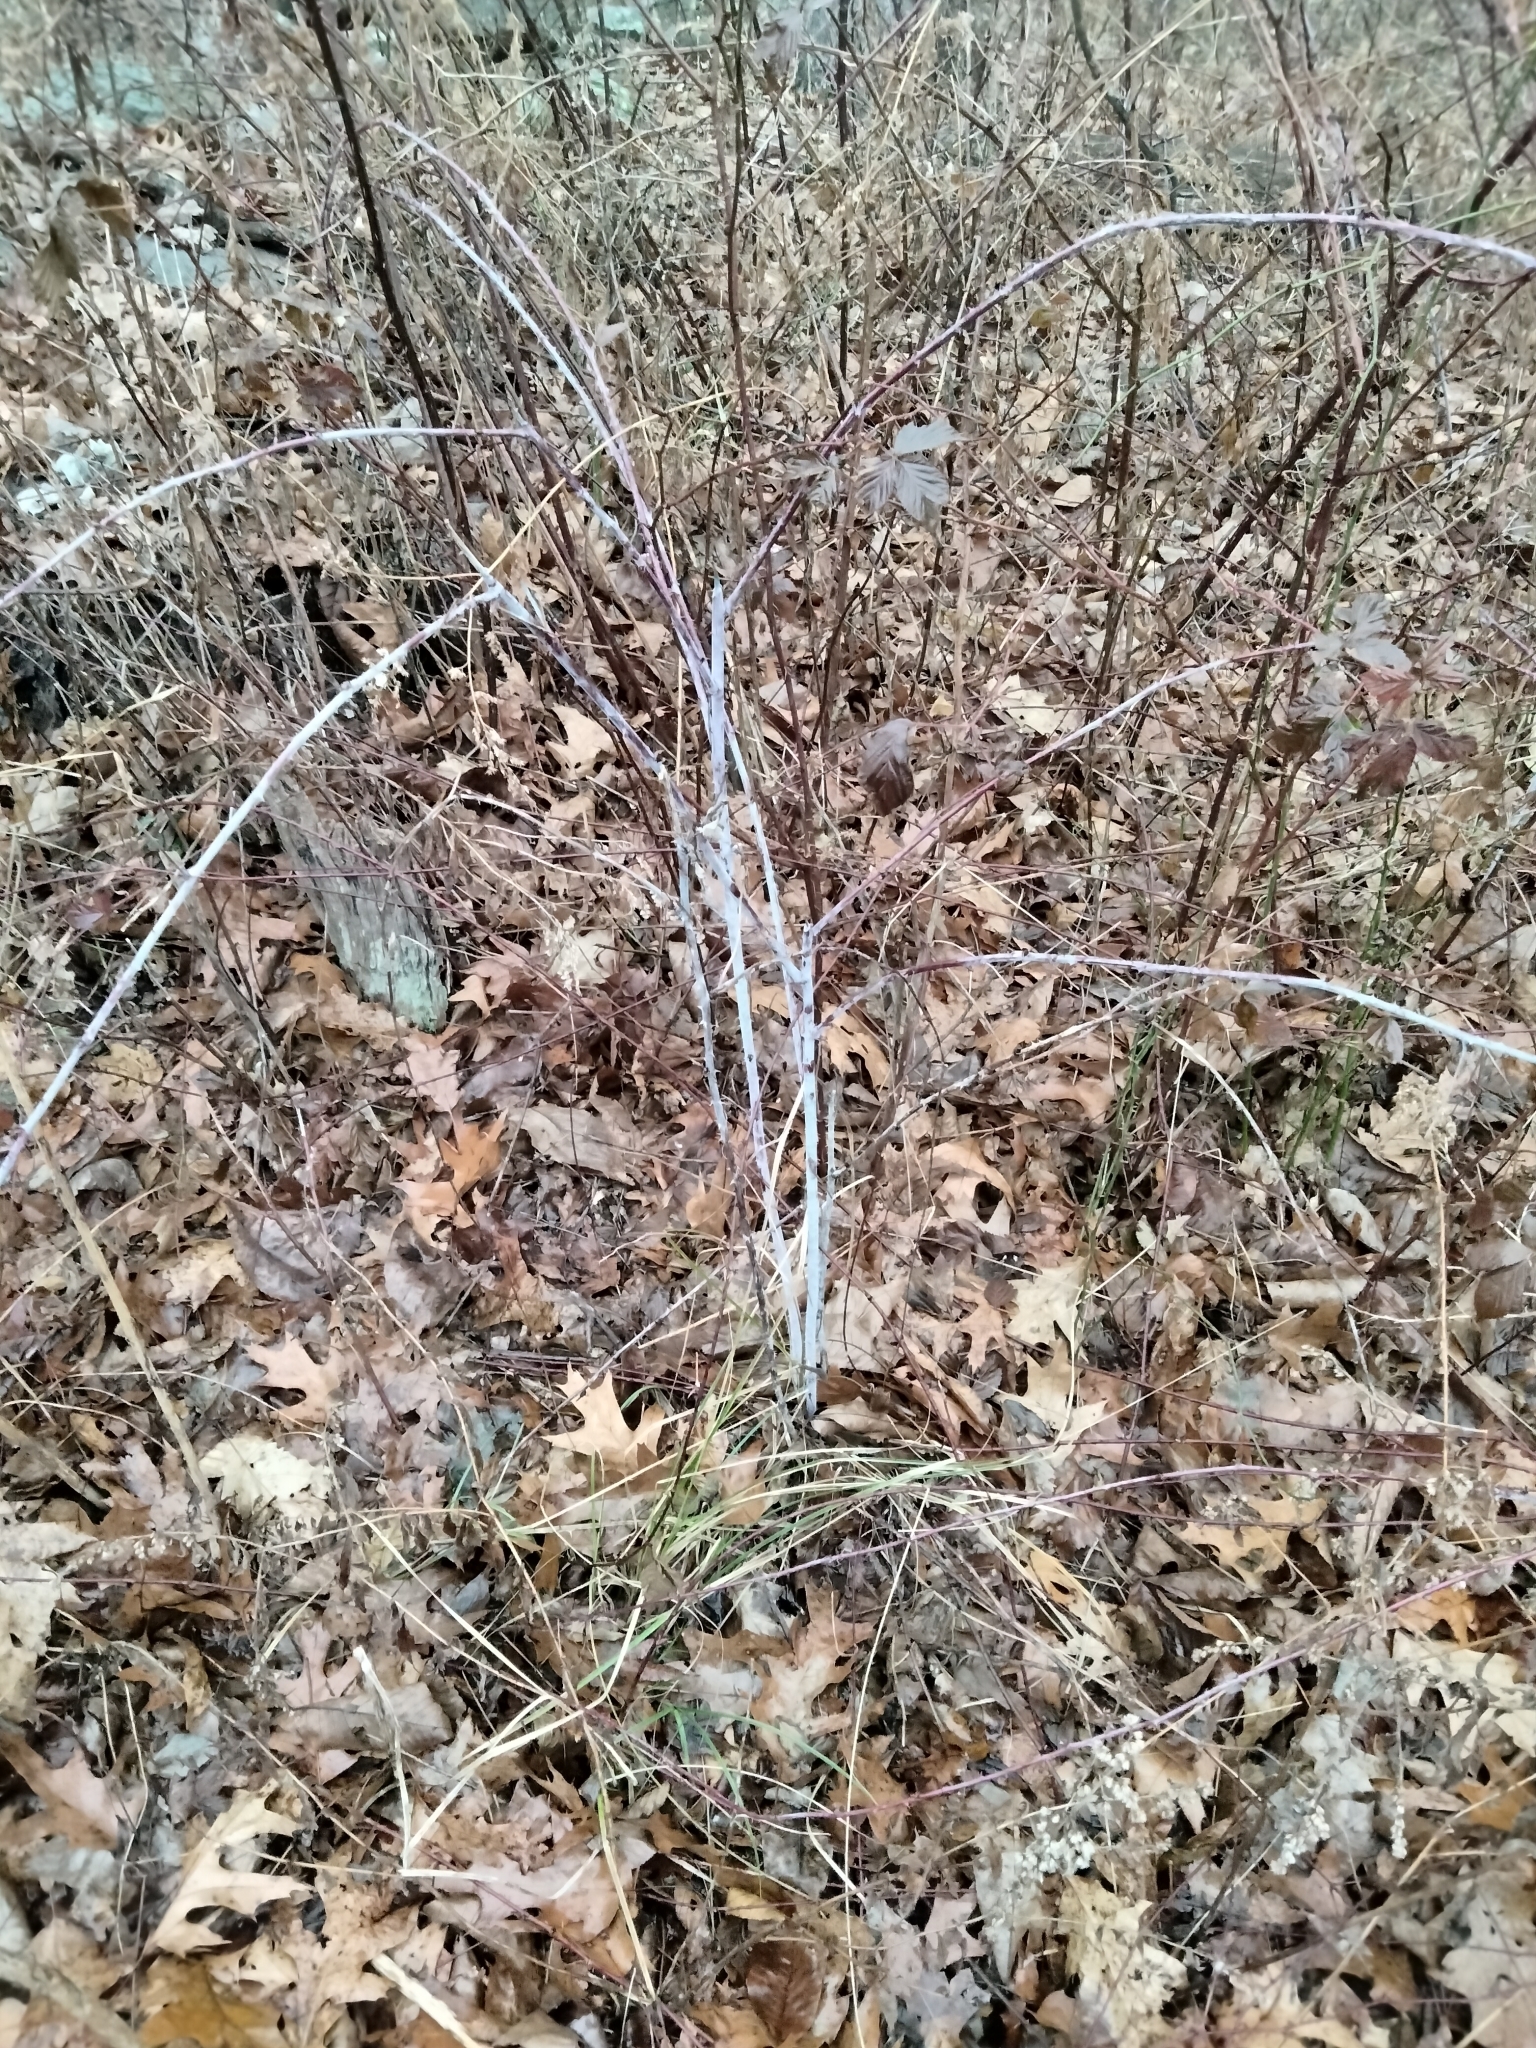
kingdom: Plantae
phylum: Tracheophyta
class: Magnoliopsida
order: Rosales
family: Rosaceae
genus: Rubus
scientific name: Rubus occidentalis
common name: Black raspberry
